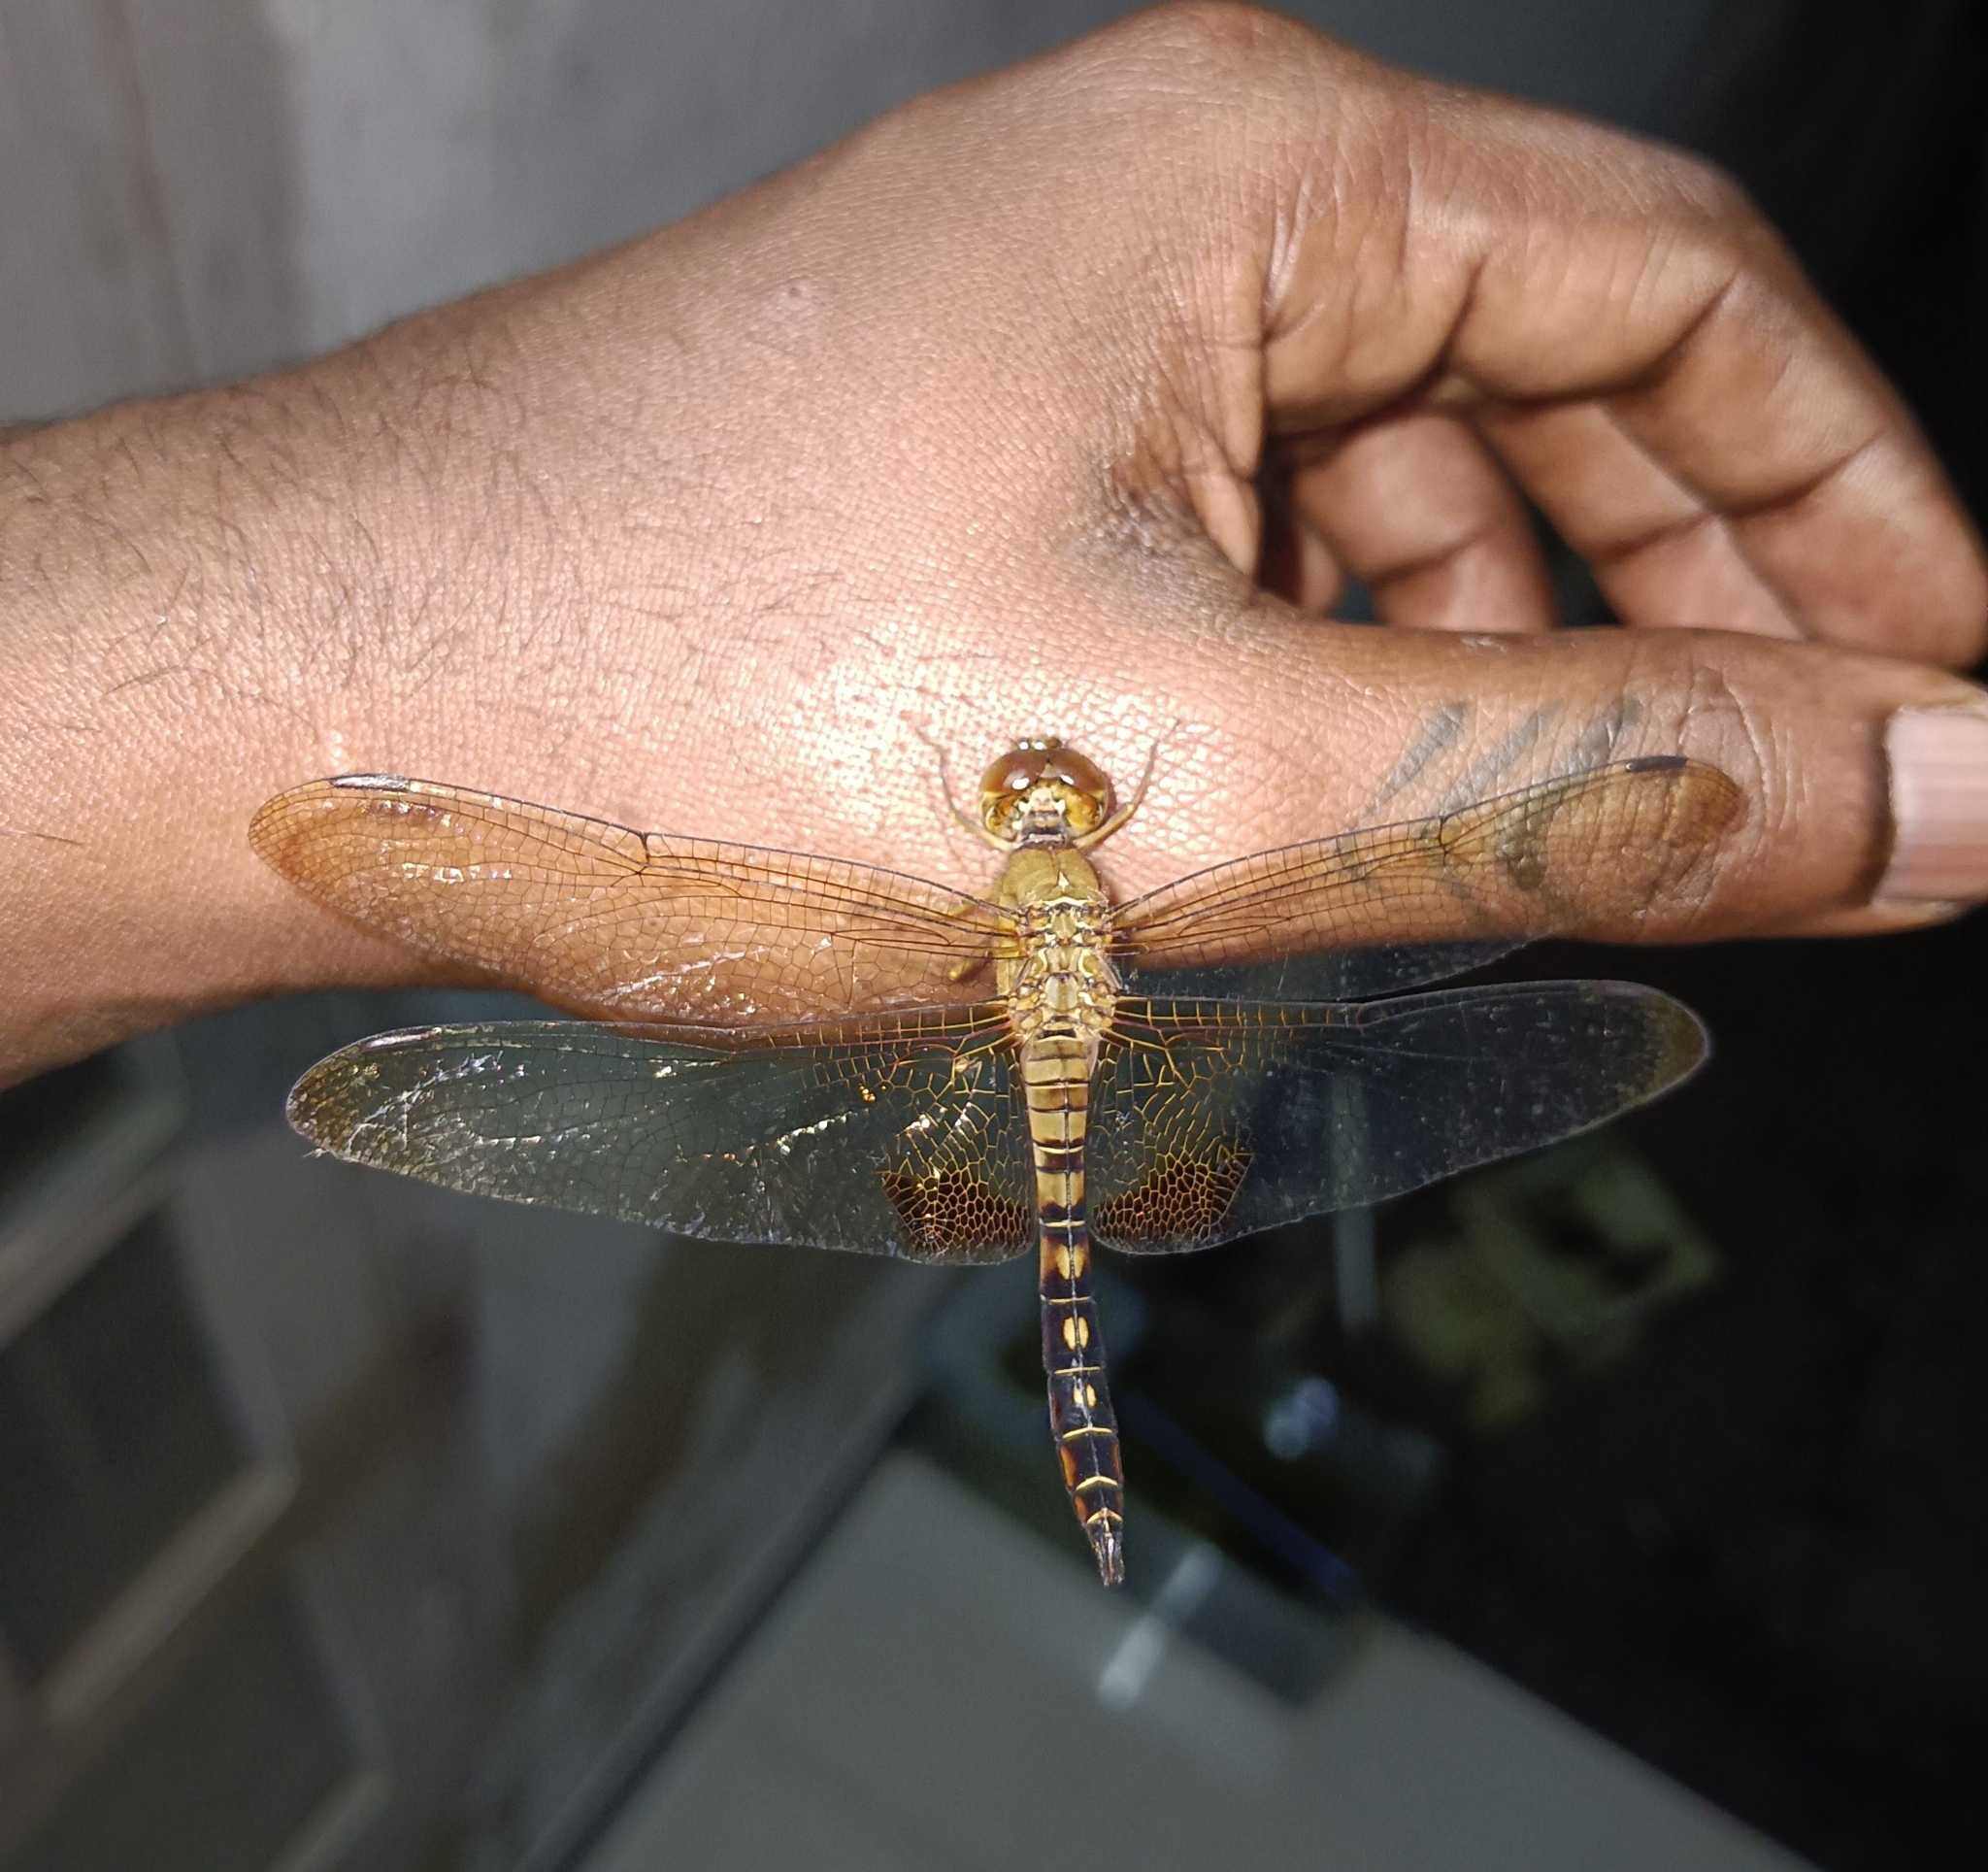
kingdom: Animalia
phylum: Arthropoda
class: Insecta
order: Odonata
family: Libellulidae
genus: Hydrobasileus
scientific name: Hydrobasileus croceus
